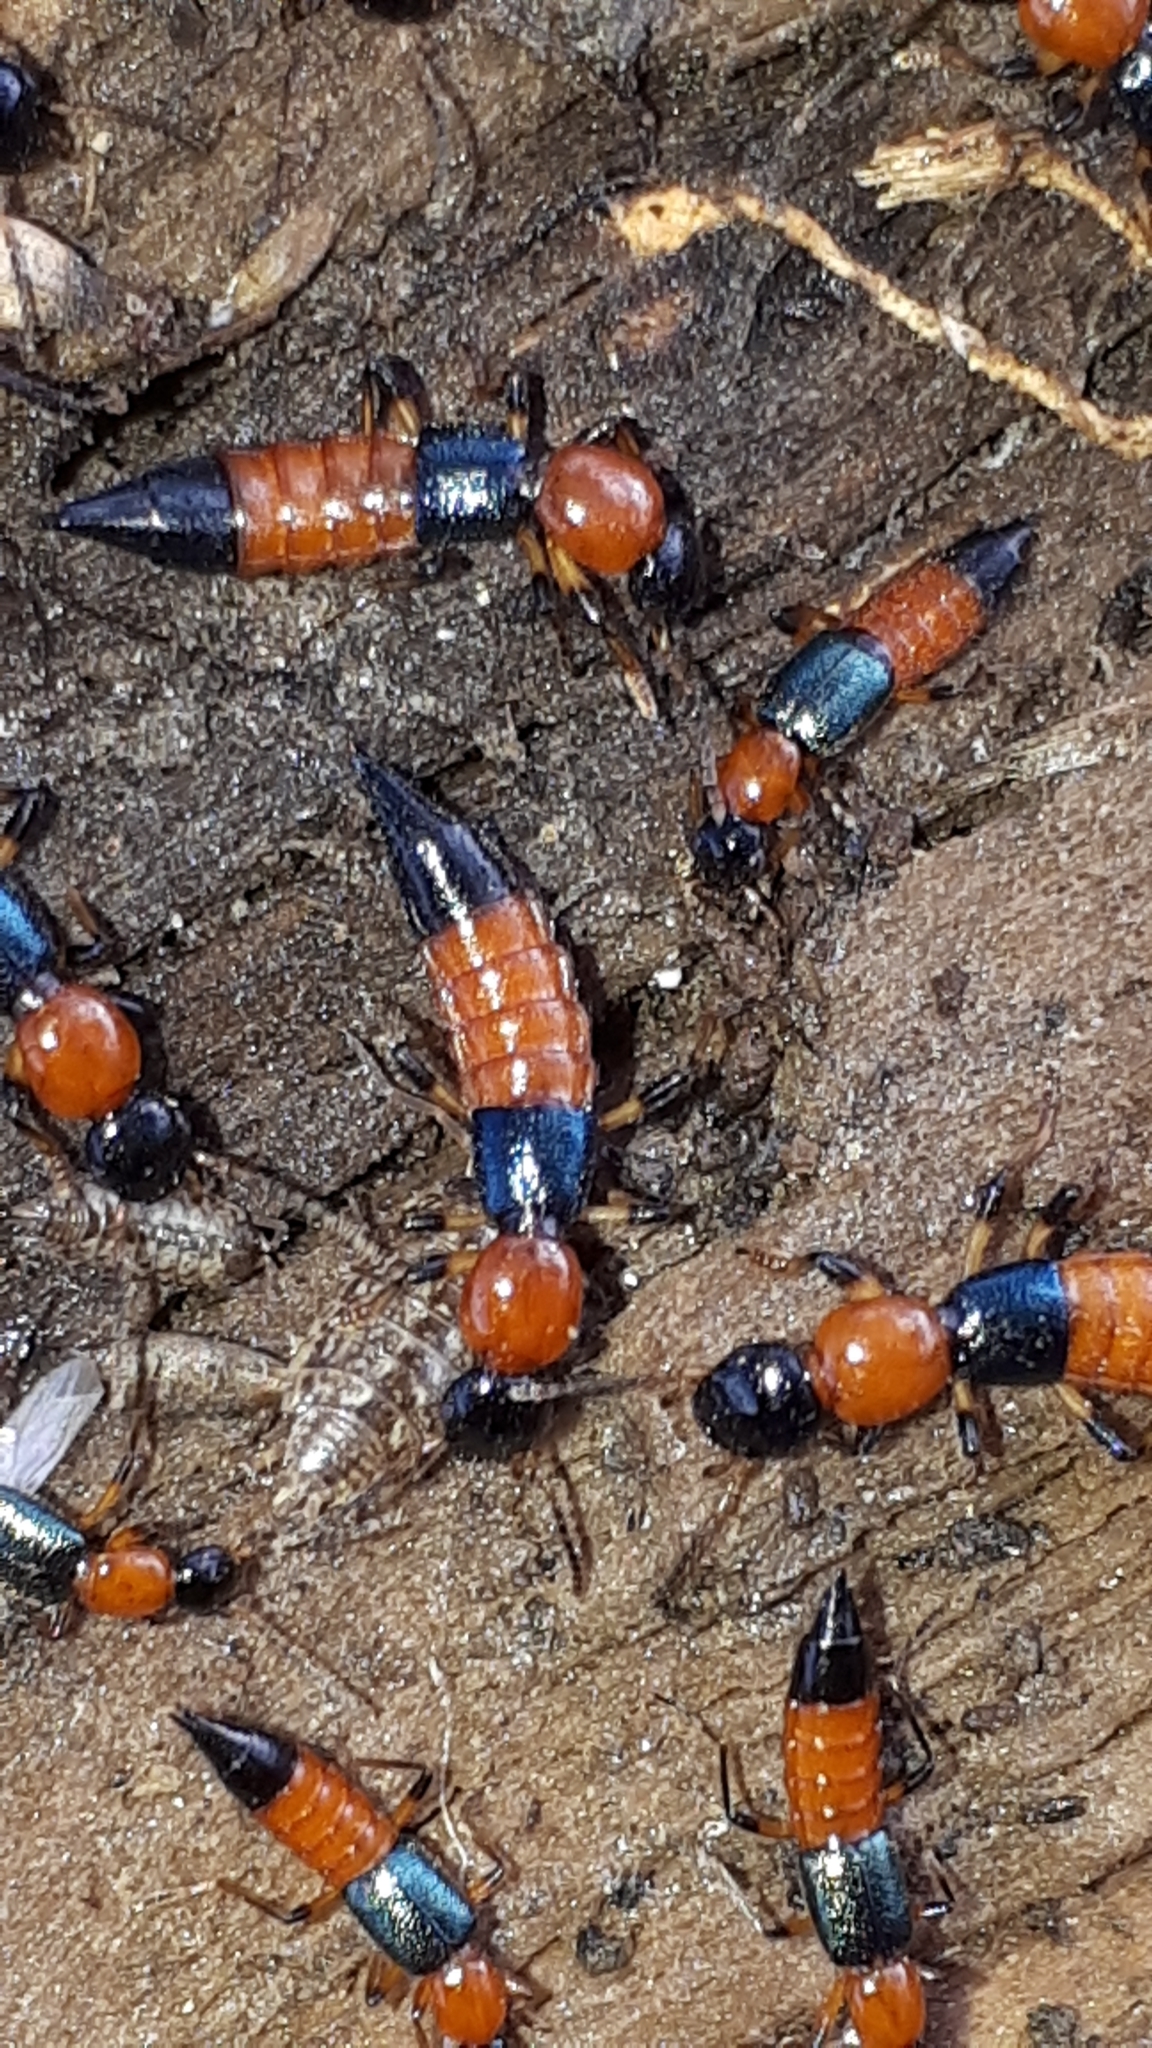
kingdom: Animalia
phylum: Arthropoda
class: Insecta
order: Coleoptera
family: Staphylinidae
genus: Paederus
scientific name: Paederus schoenherri
